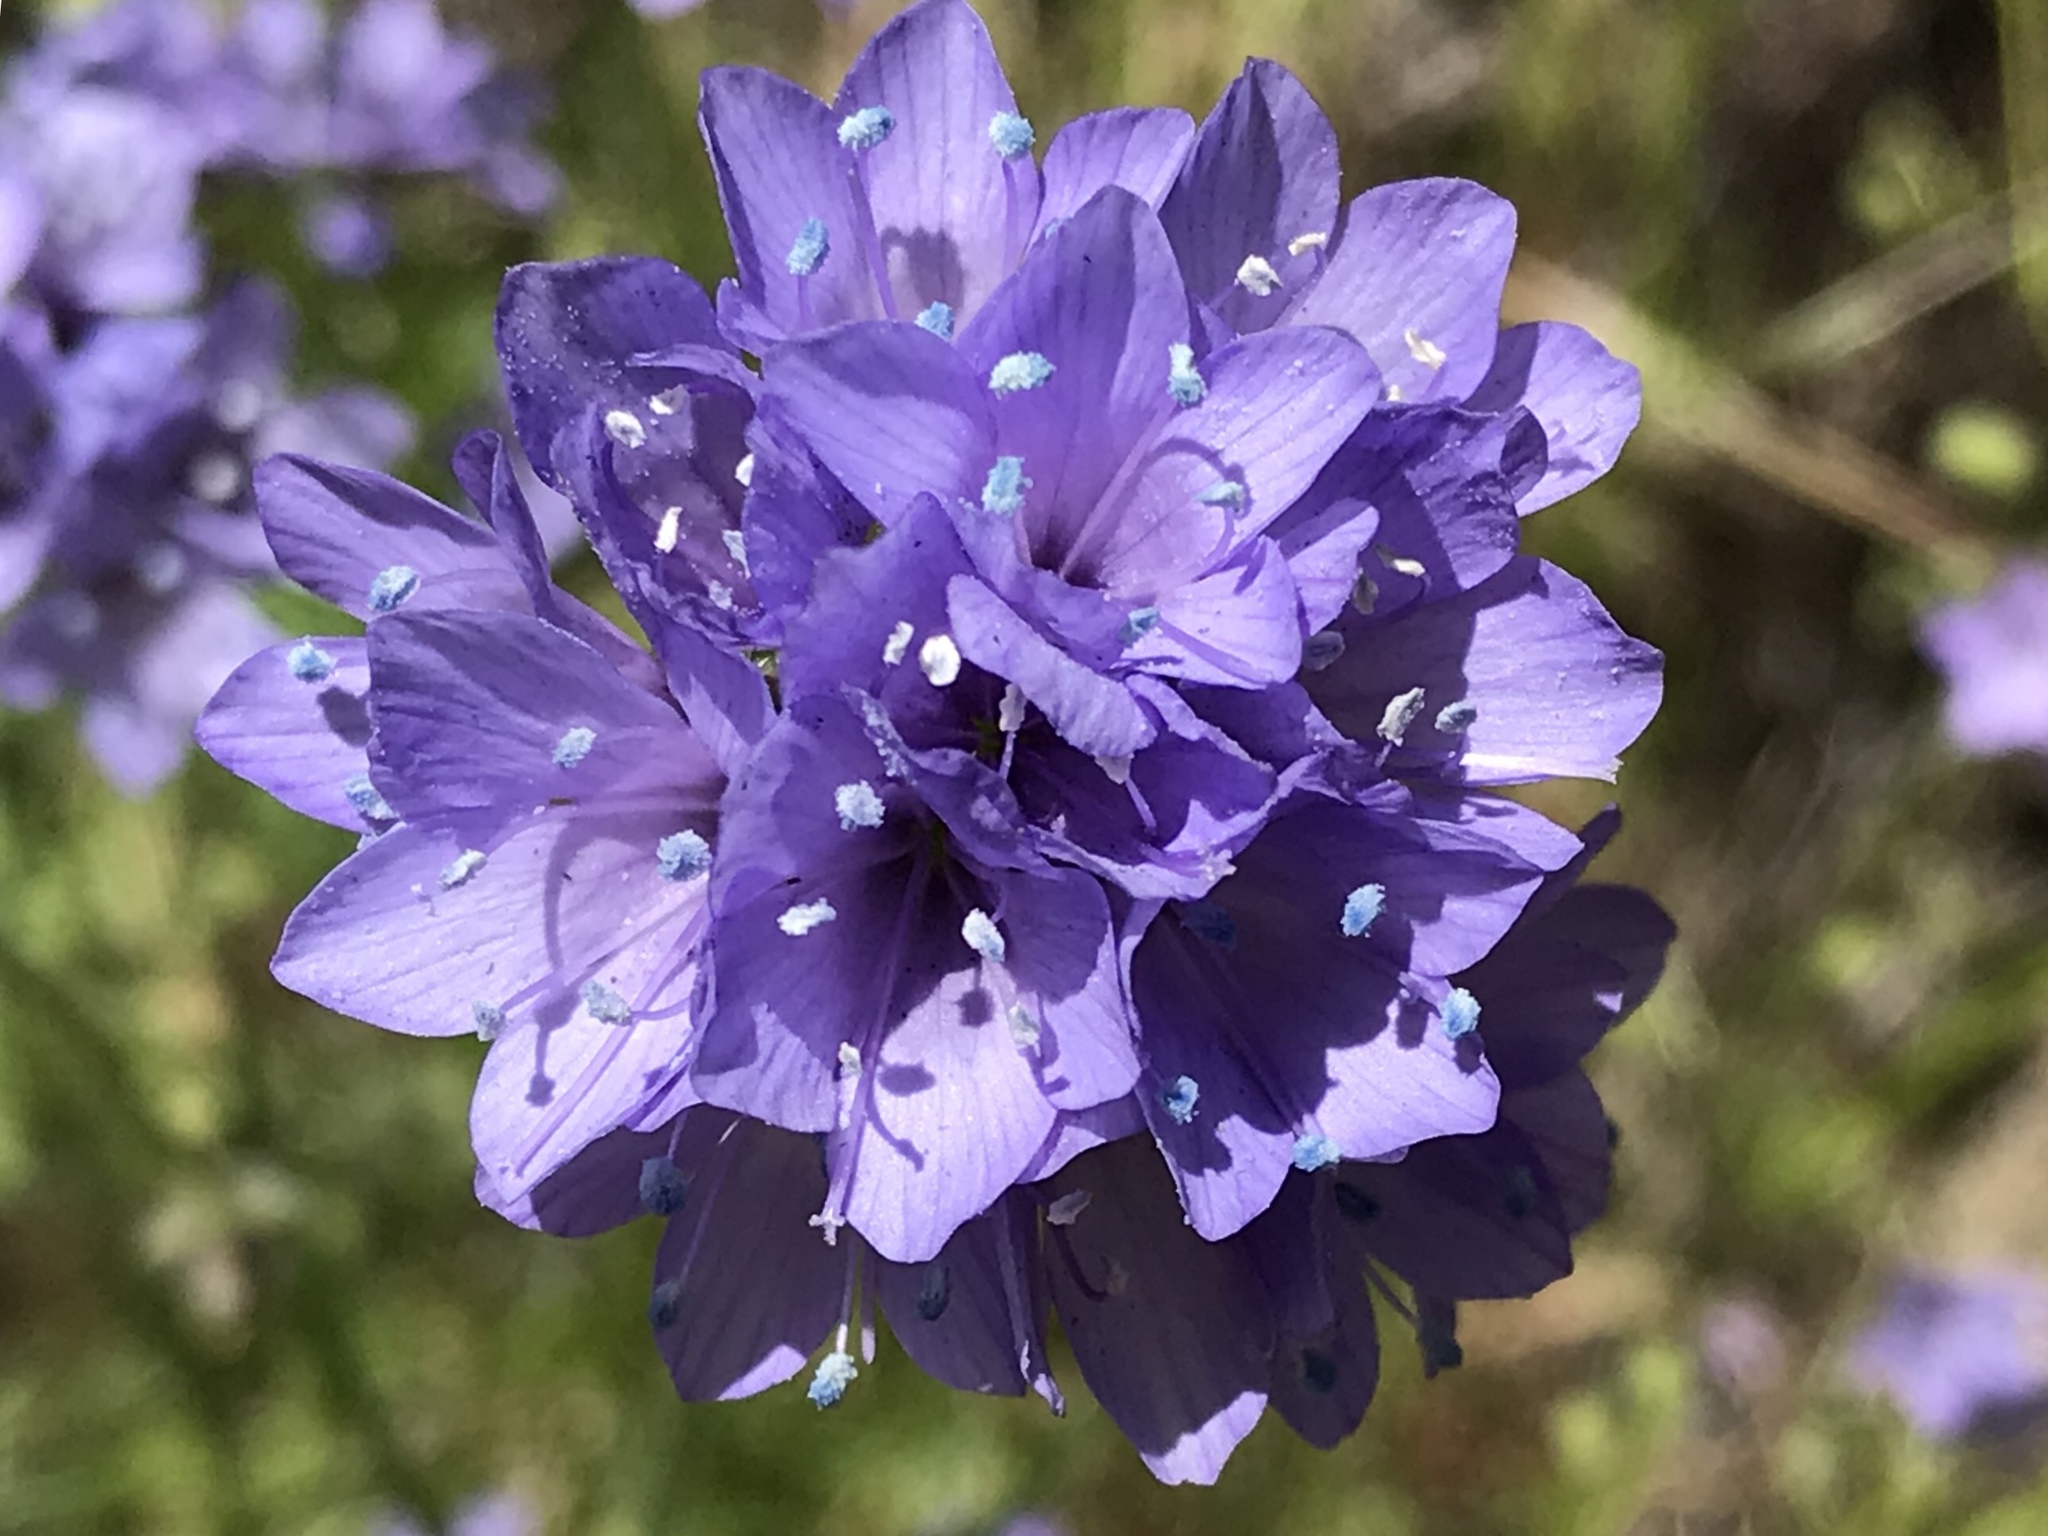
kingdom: Plantae
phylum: Tracheophyta
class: Magnoliopsida
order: Ericales
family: Polemoniaceae
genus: Gilia
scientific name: Gilia achilleifolia
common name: California gily-flower
